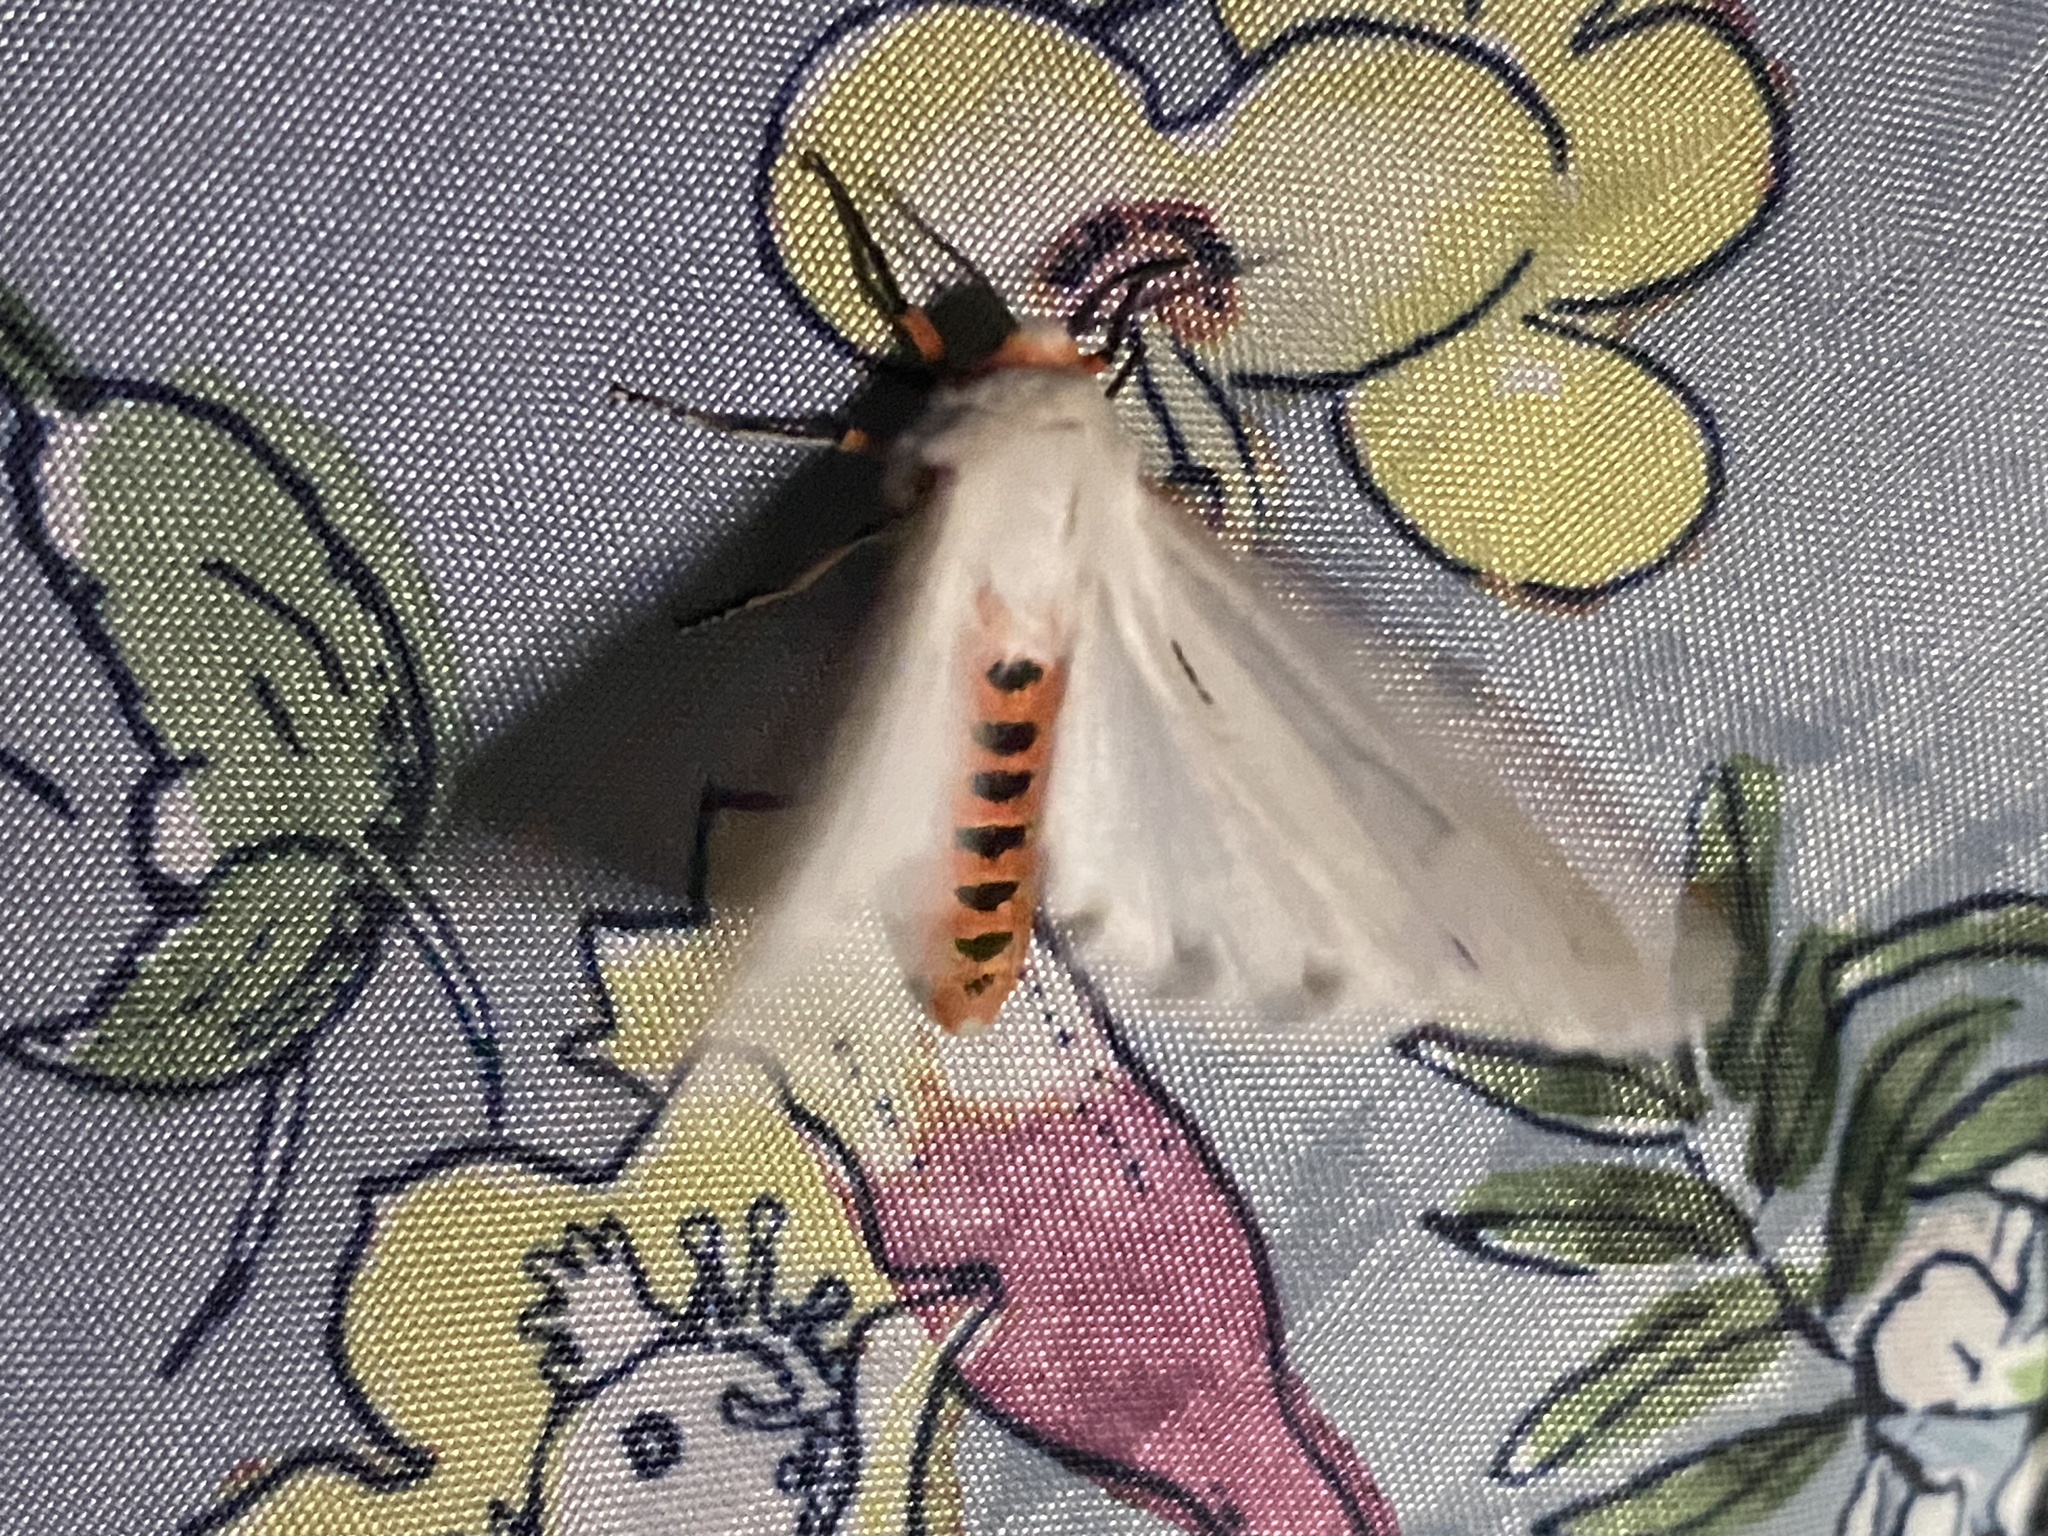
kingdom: Animalia
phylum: Arthropoda
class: Insecta
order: Lepidoptera
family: Erebidae
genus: Aloa
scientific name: Aloa marginata
